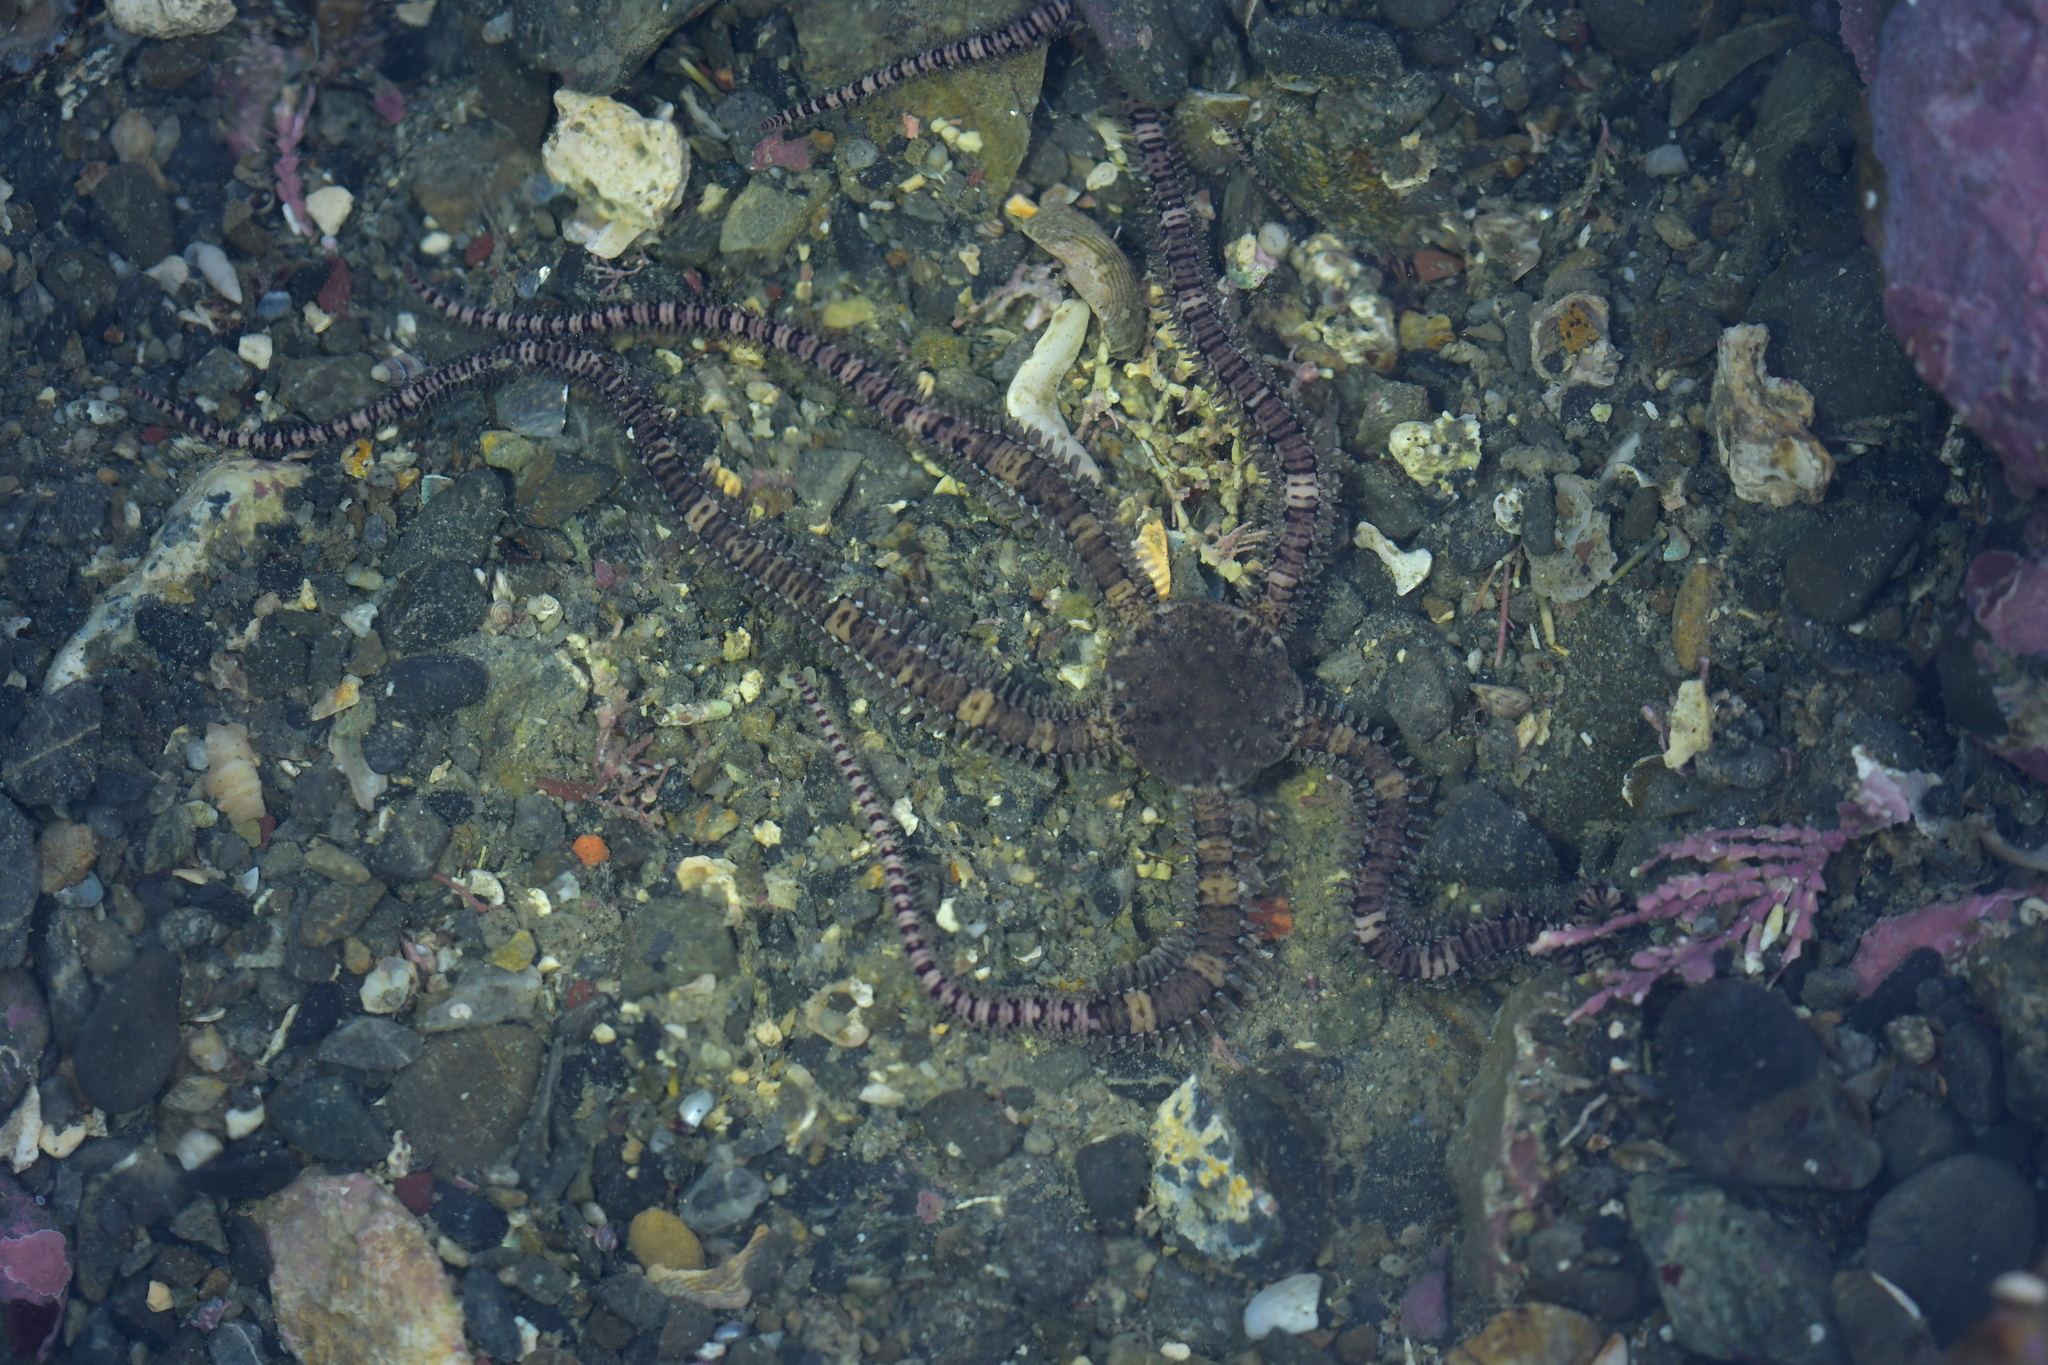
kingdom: Animalia
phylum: Echinodermata
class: Ophiuroidea
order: Amphilepidida
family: Ophionereididae
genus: Ophionereis
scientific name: Ophionereis fasciata
